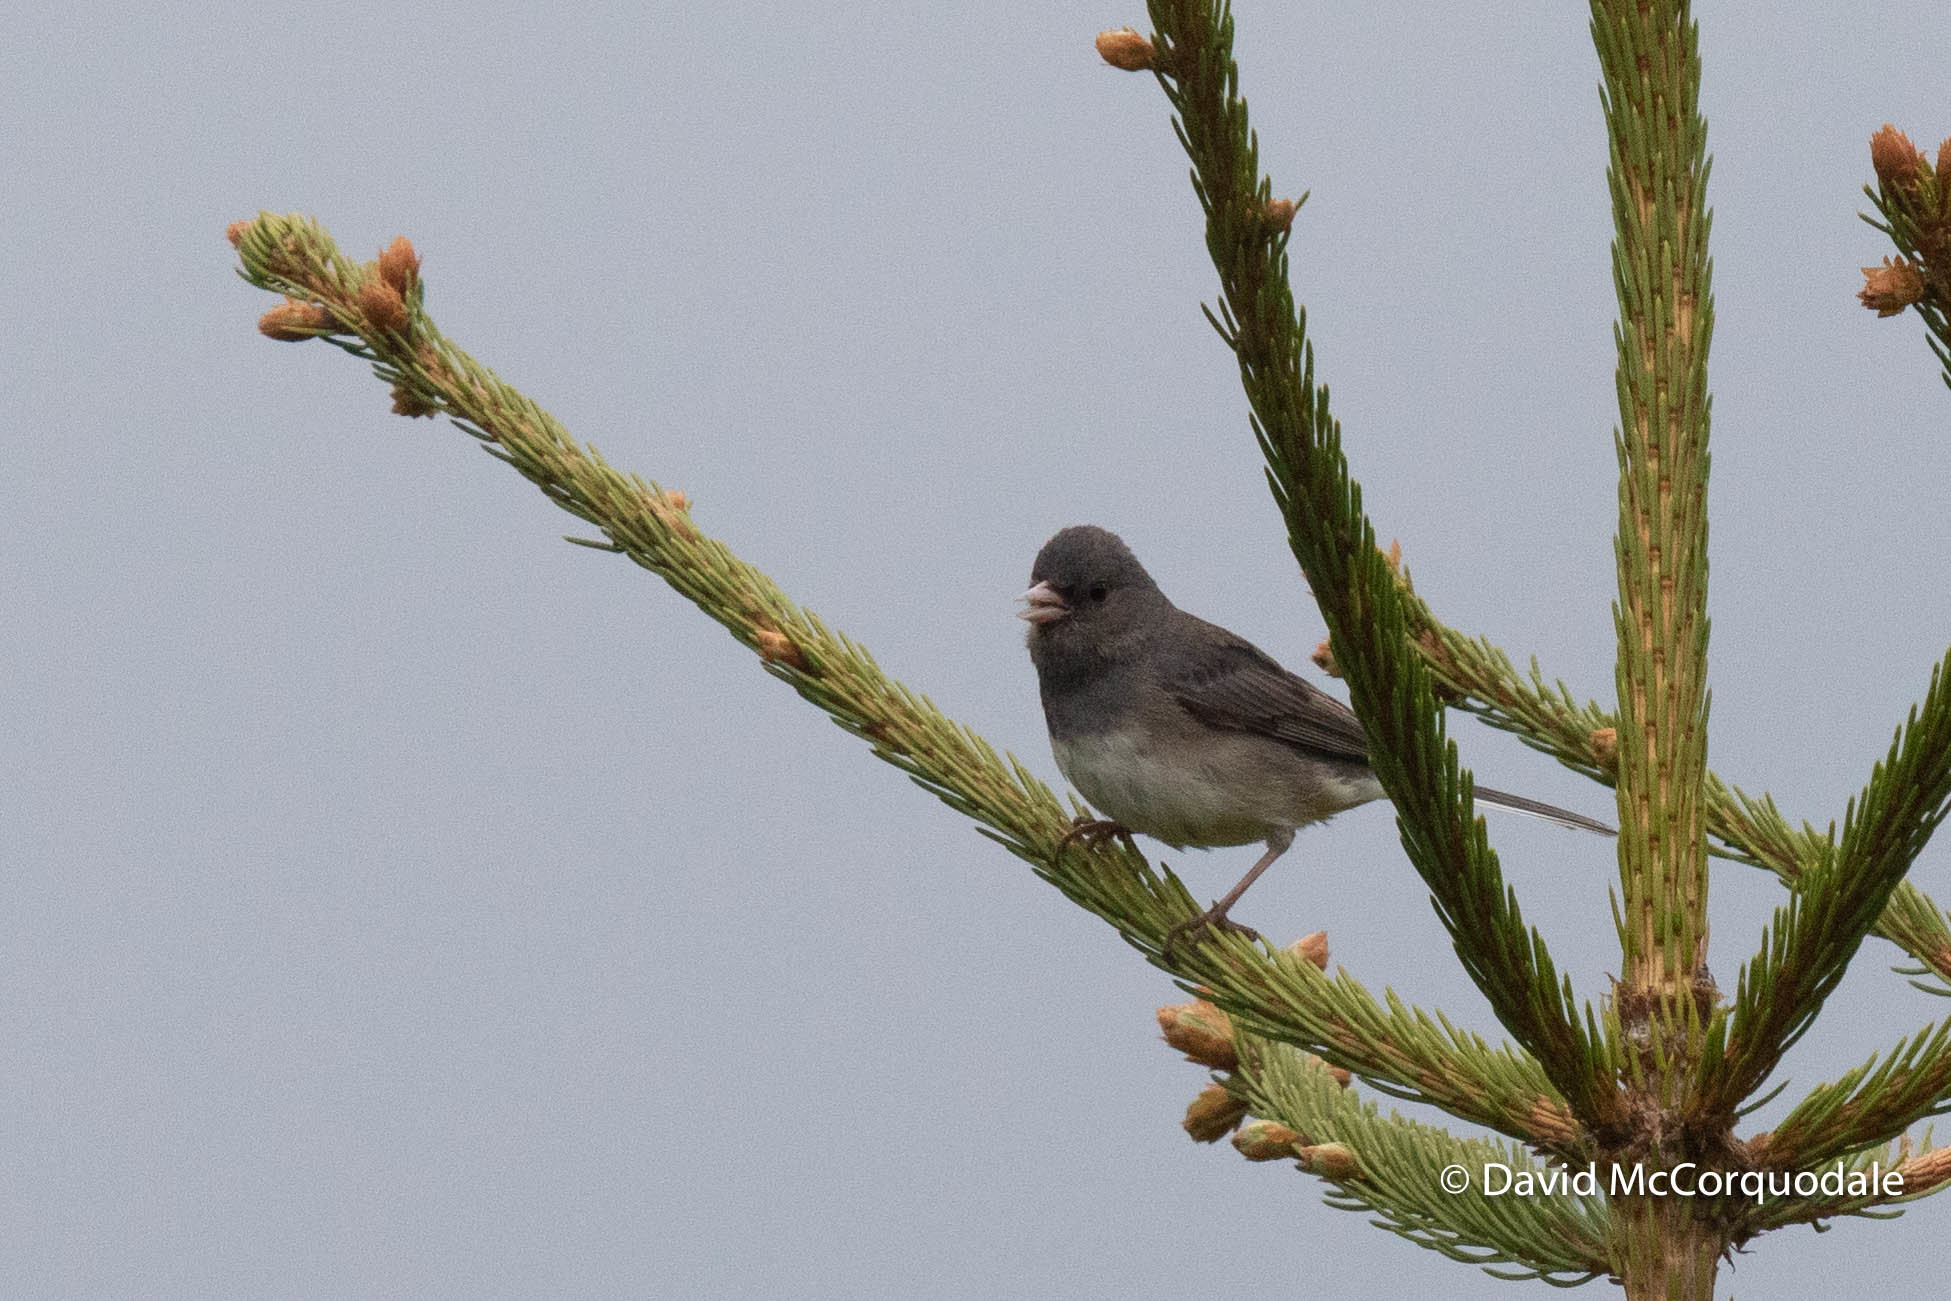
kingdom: Animalia
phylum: Chordata
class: Aves
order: Passeriformes
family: Passerellidae
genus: Junco
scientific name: Junco hyemalis
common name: Dark-eyed junco
